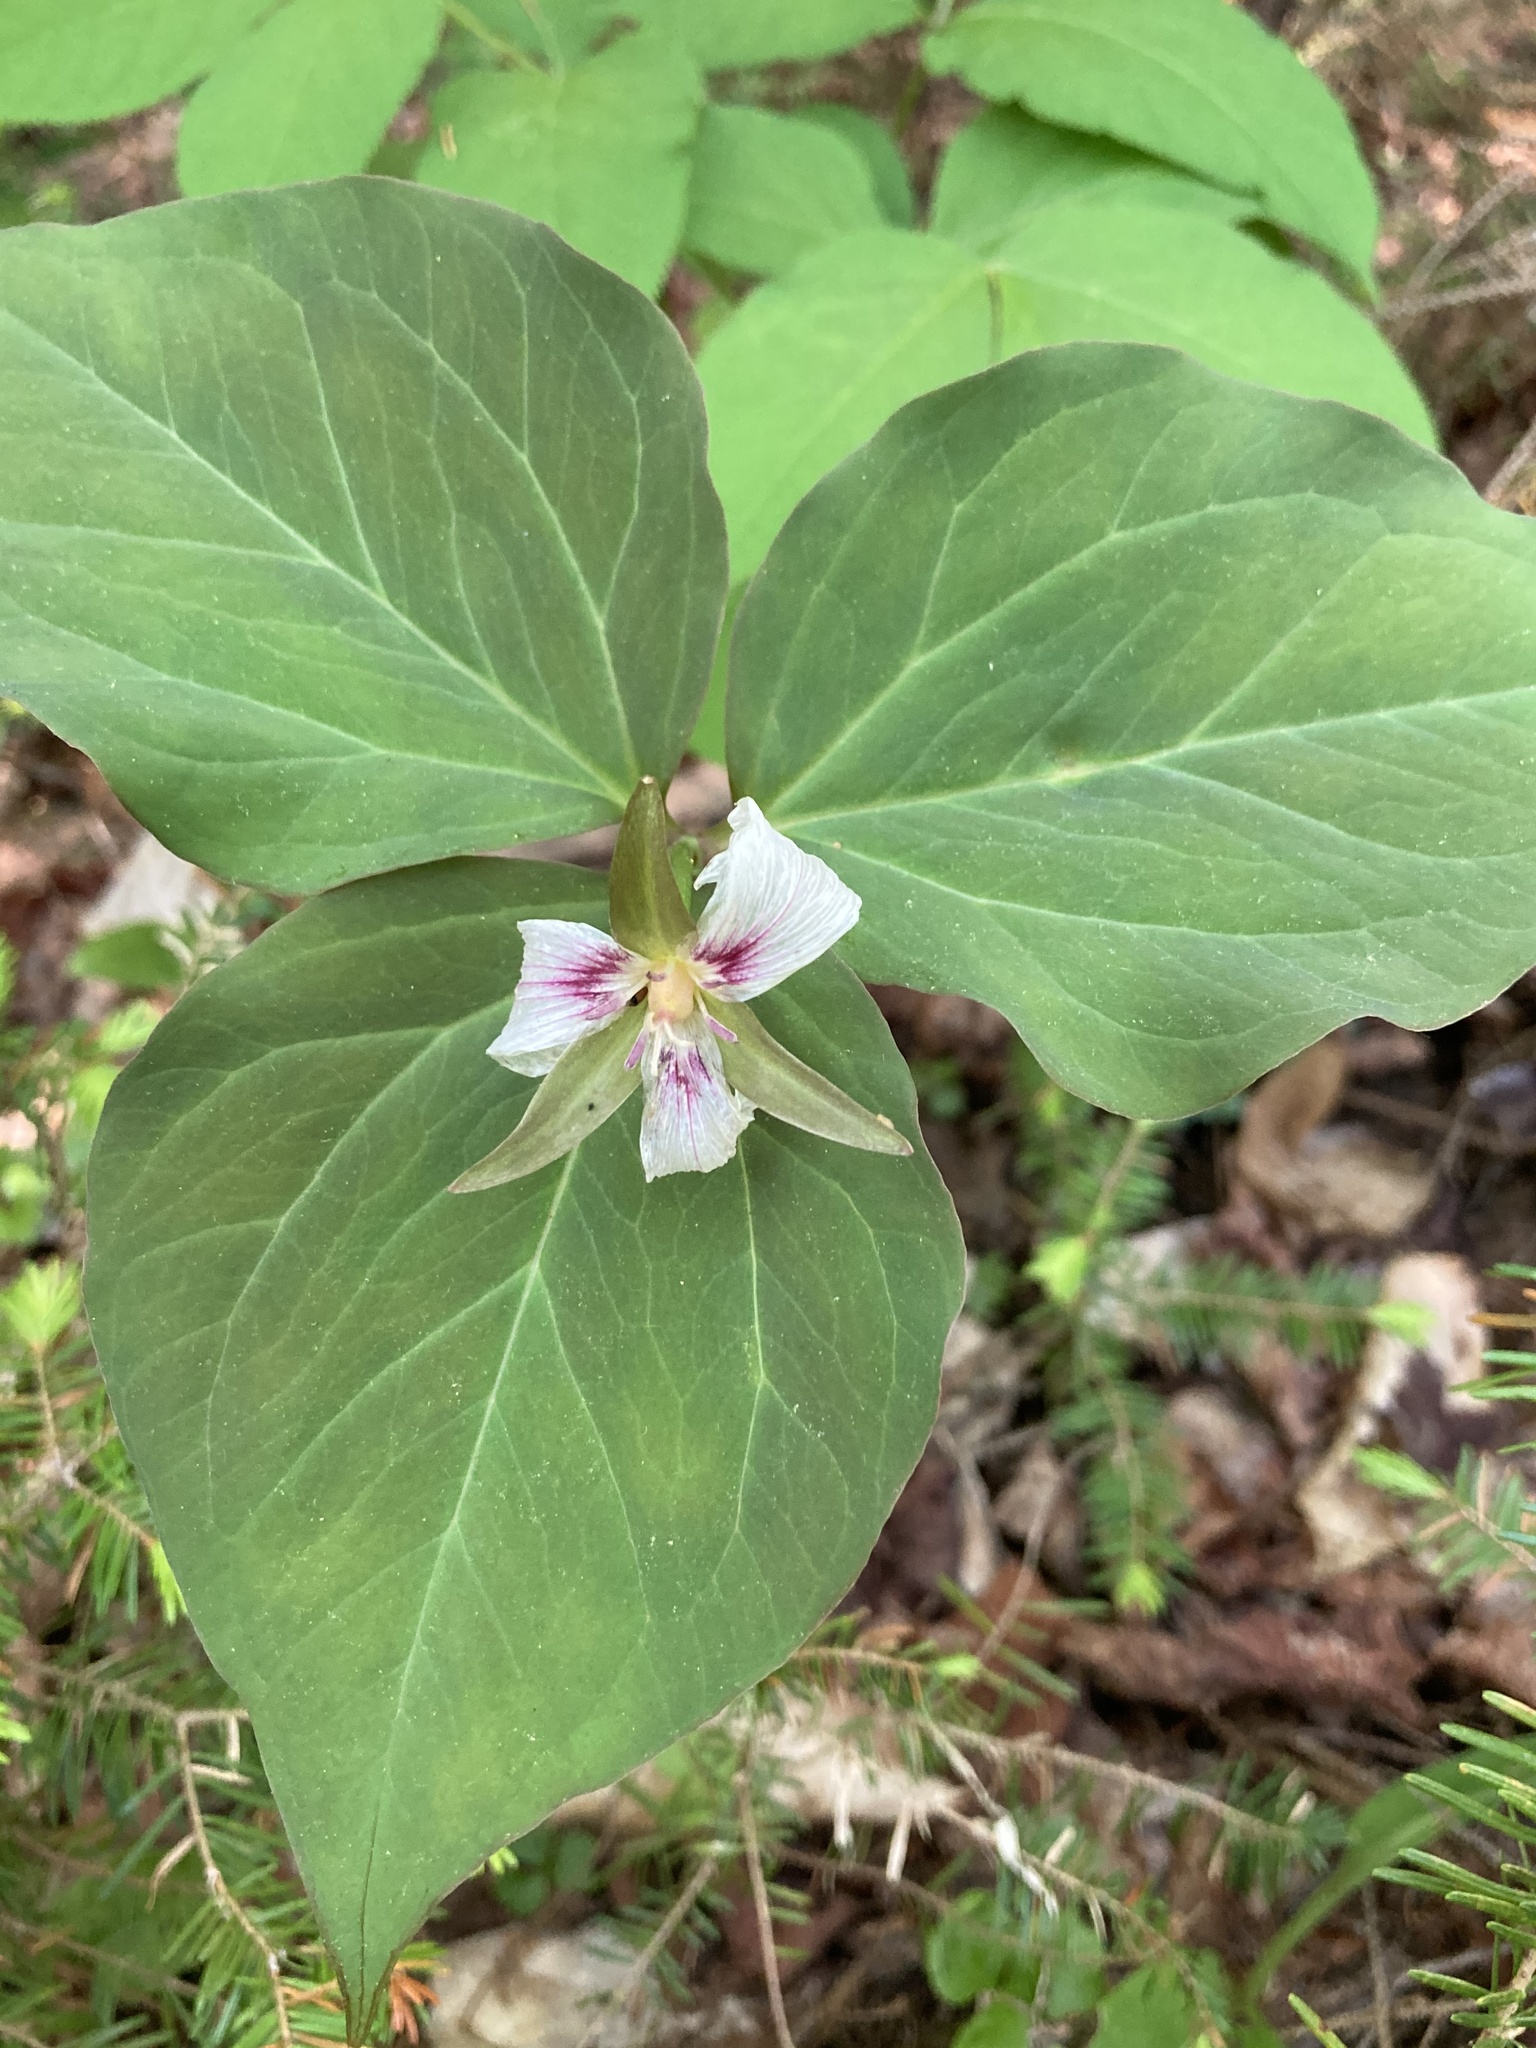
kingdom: Plantae
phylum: Tracheophyta
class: Liliopsida
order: Liliales
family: Melanthiaceae
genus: Trillium
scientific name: Trillium undulatum
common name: Paint trillium
